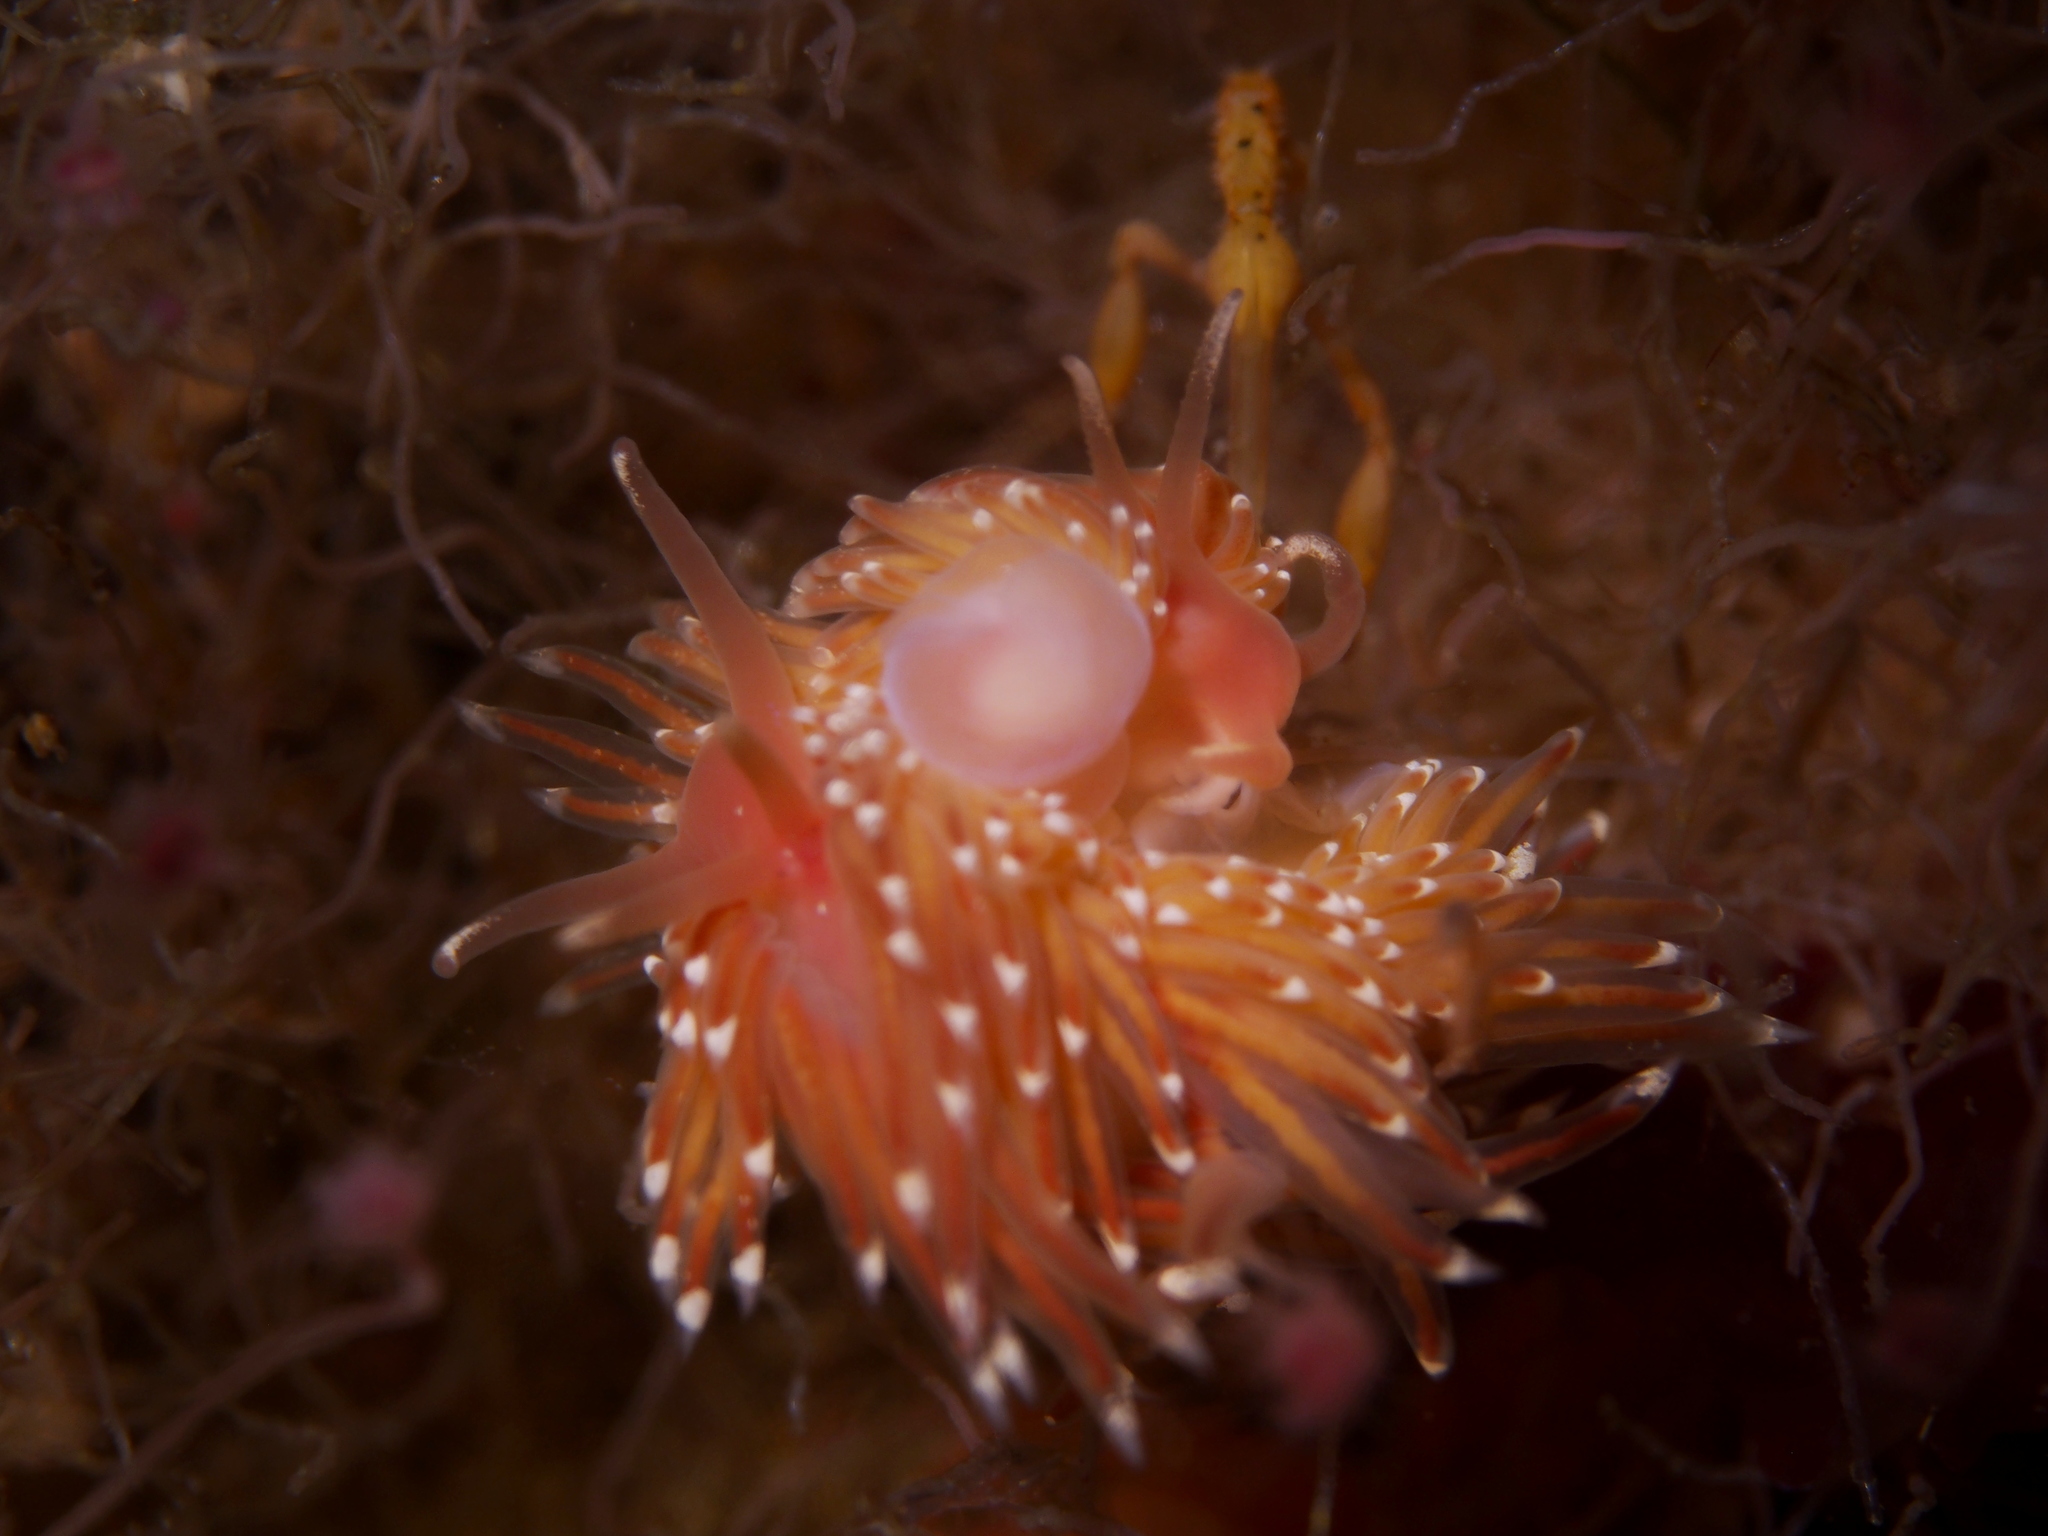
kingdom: Animalia
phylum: Mollusca
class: Gastropoda
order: Nudibranchia
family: Facelinidae
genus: Facelina
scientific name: Facelina bostoniensis
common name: Boston facelina
